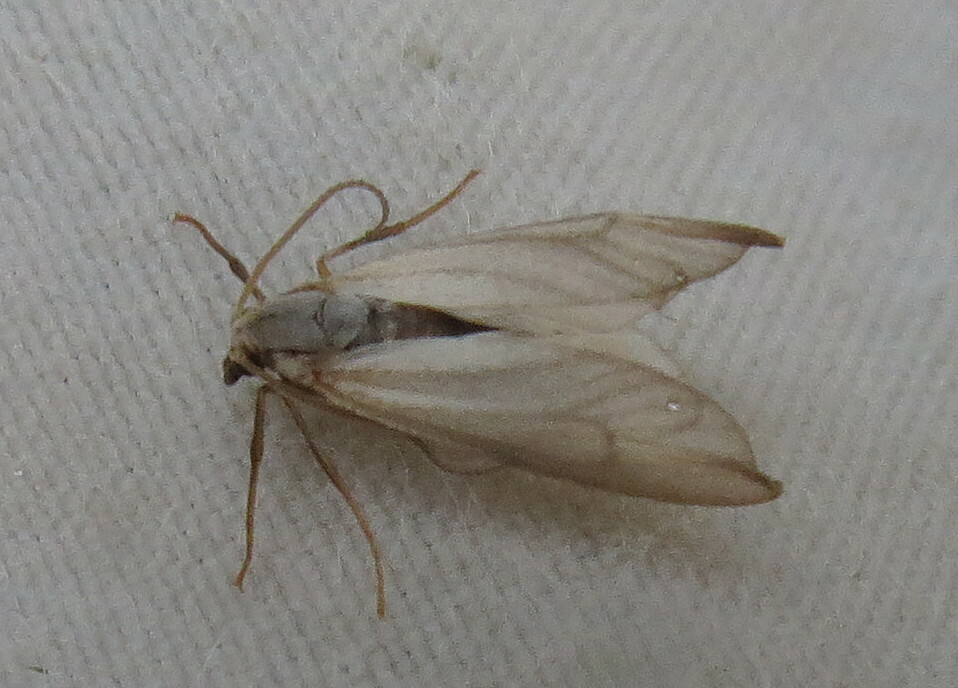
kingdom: Animalia
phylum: Arthropoda
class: Insecta
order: Lepidoptera
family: Crambidae
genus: Acentria
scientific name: Acentria ephemerella
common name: European water moth
